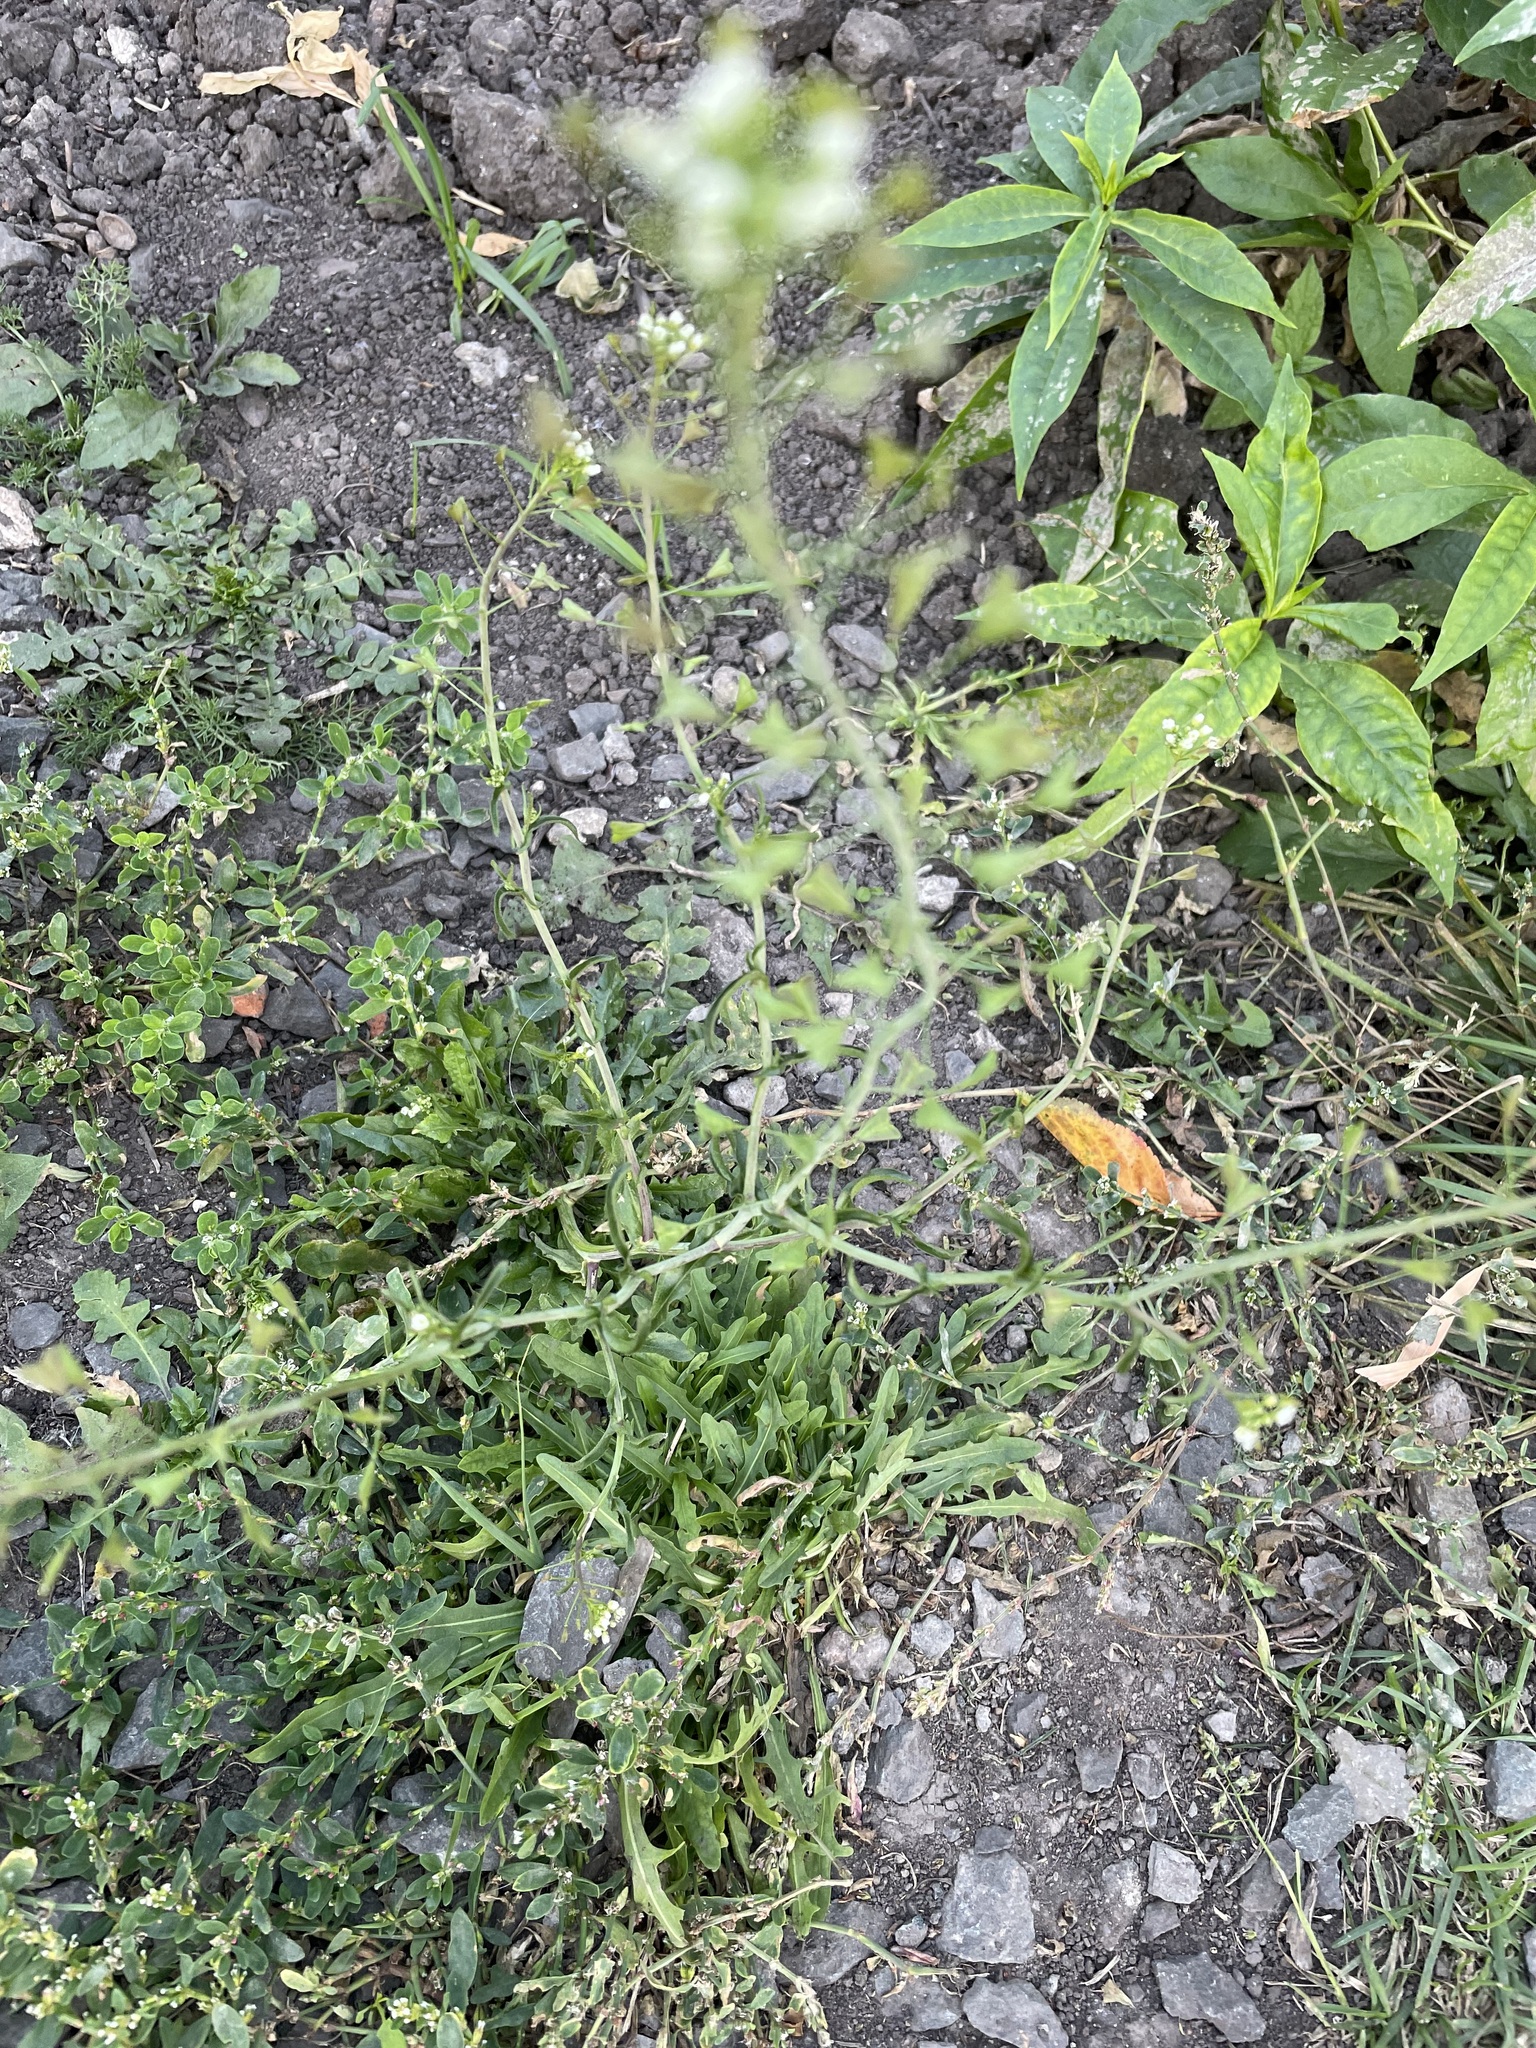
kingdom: Plantae
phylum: Tracheophyta
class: Magnoliopsida
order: Brassicales
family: Brassicaceae
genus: Capsella
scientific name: Capsella bursa-pastoris
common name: Shepherd's purse
